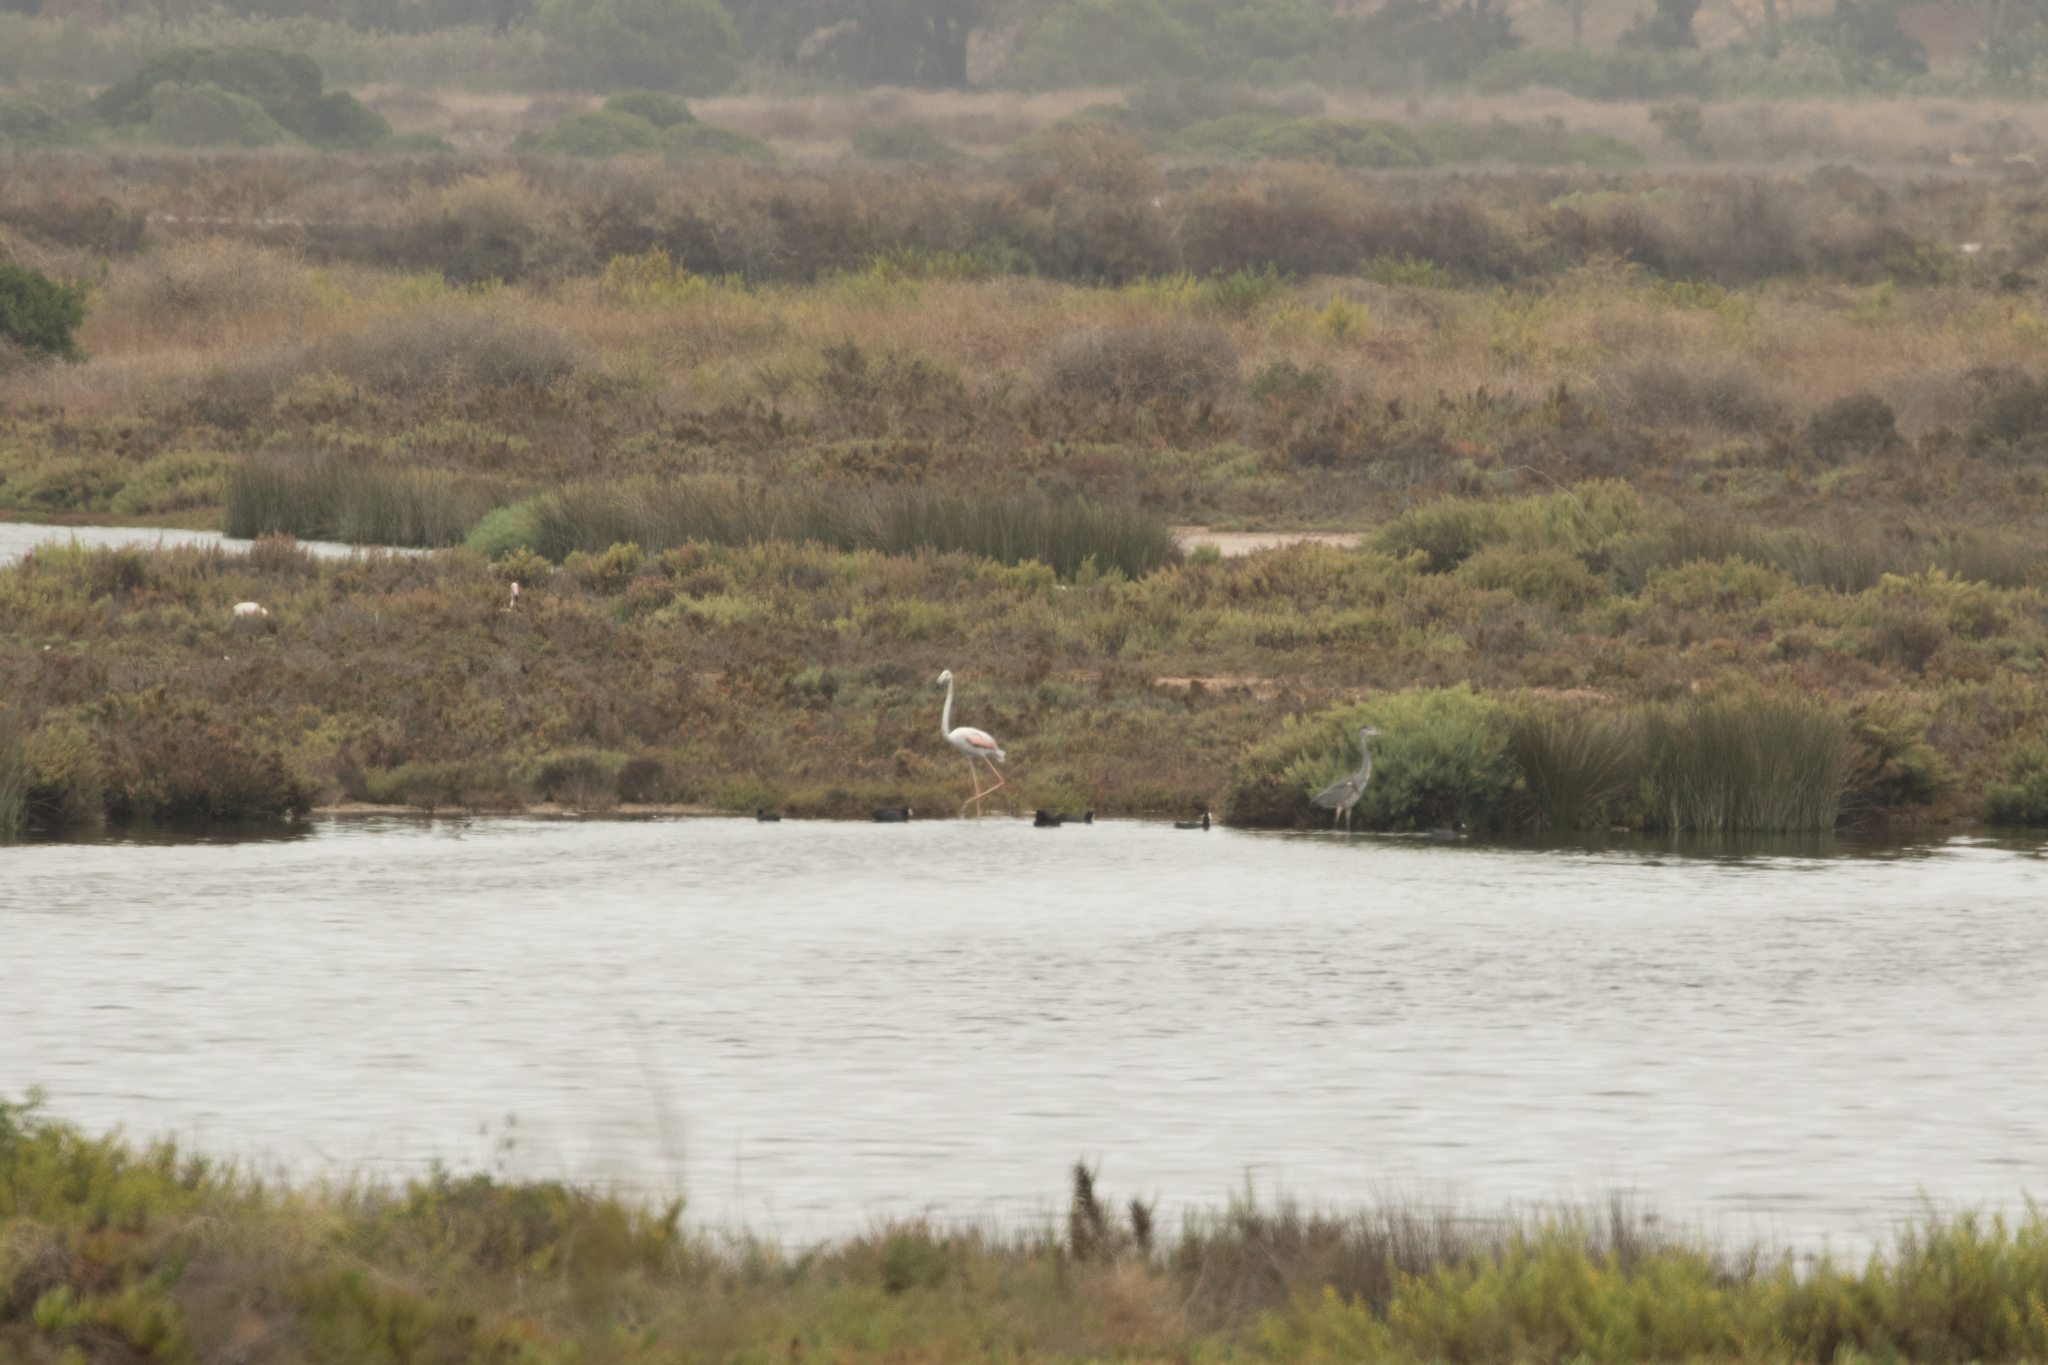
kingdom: Animalia
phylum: Chordata
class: Aves
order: Pelecaniformes
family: Ardeidae
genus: Ardea
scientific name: Ardea cinerea
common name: Grey heron
